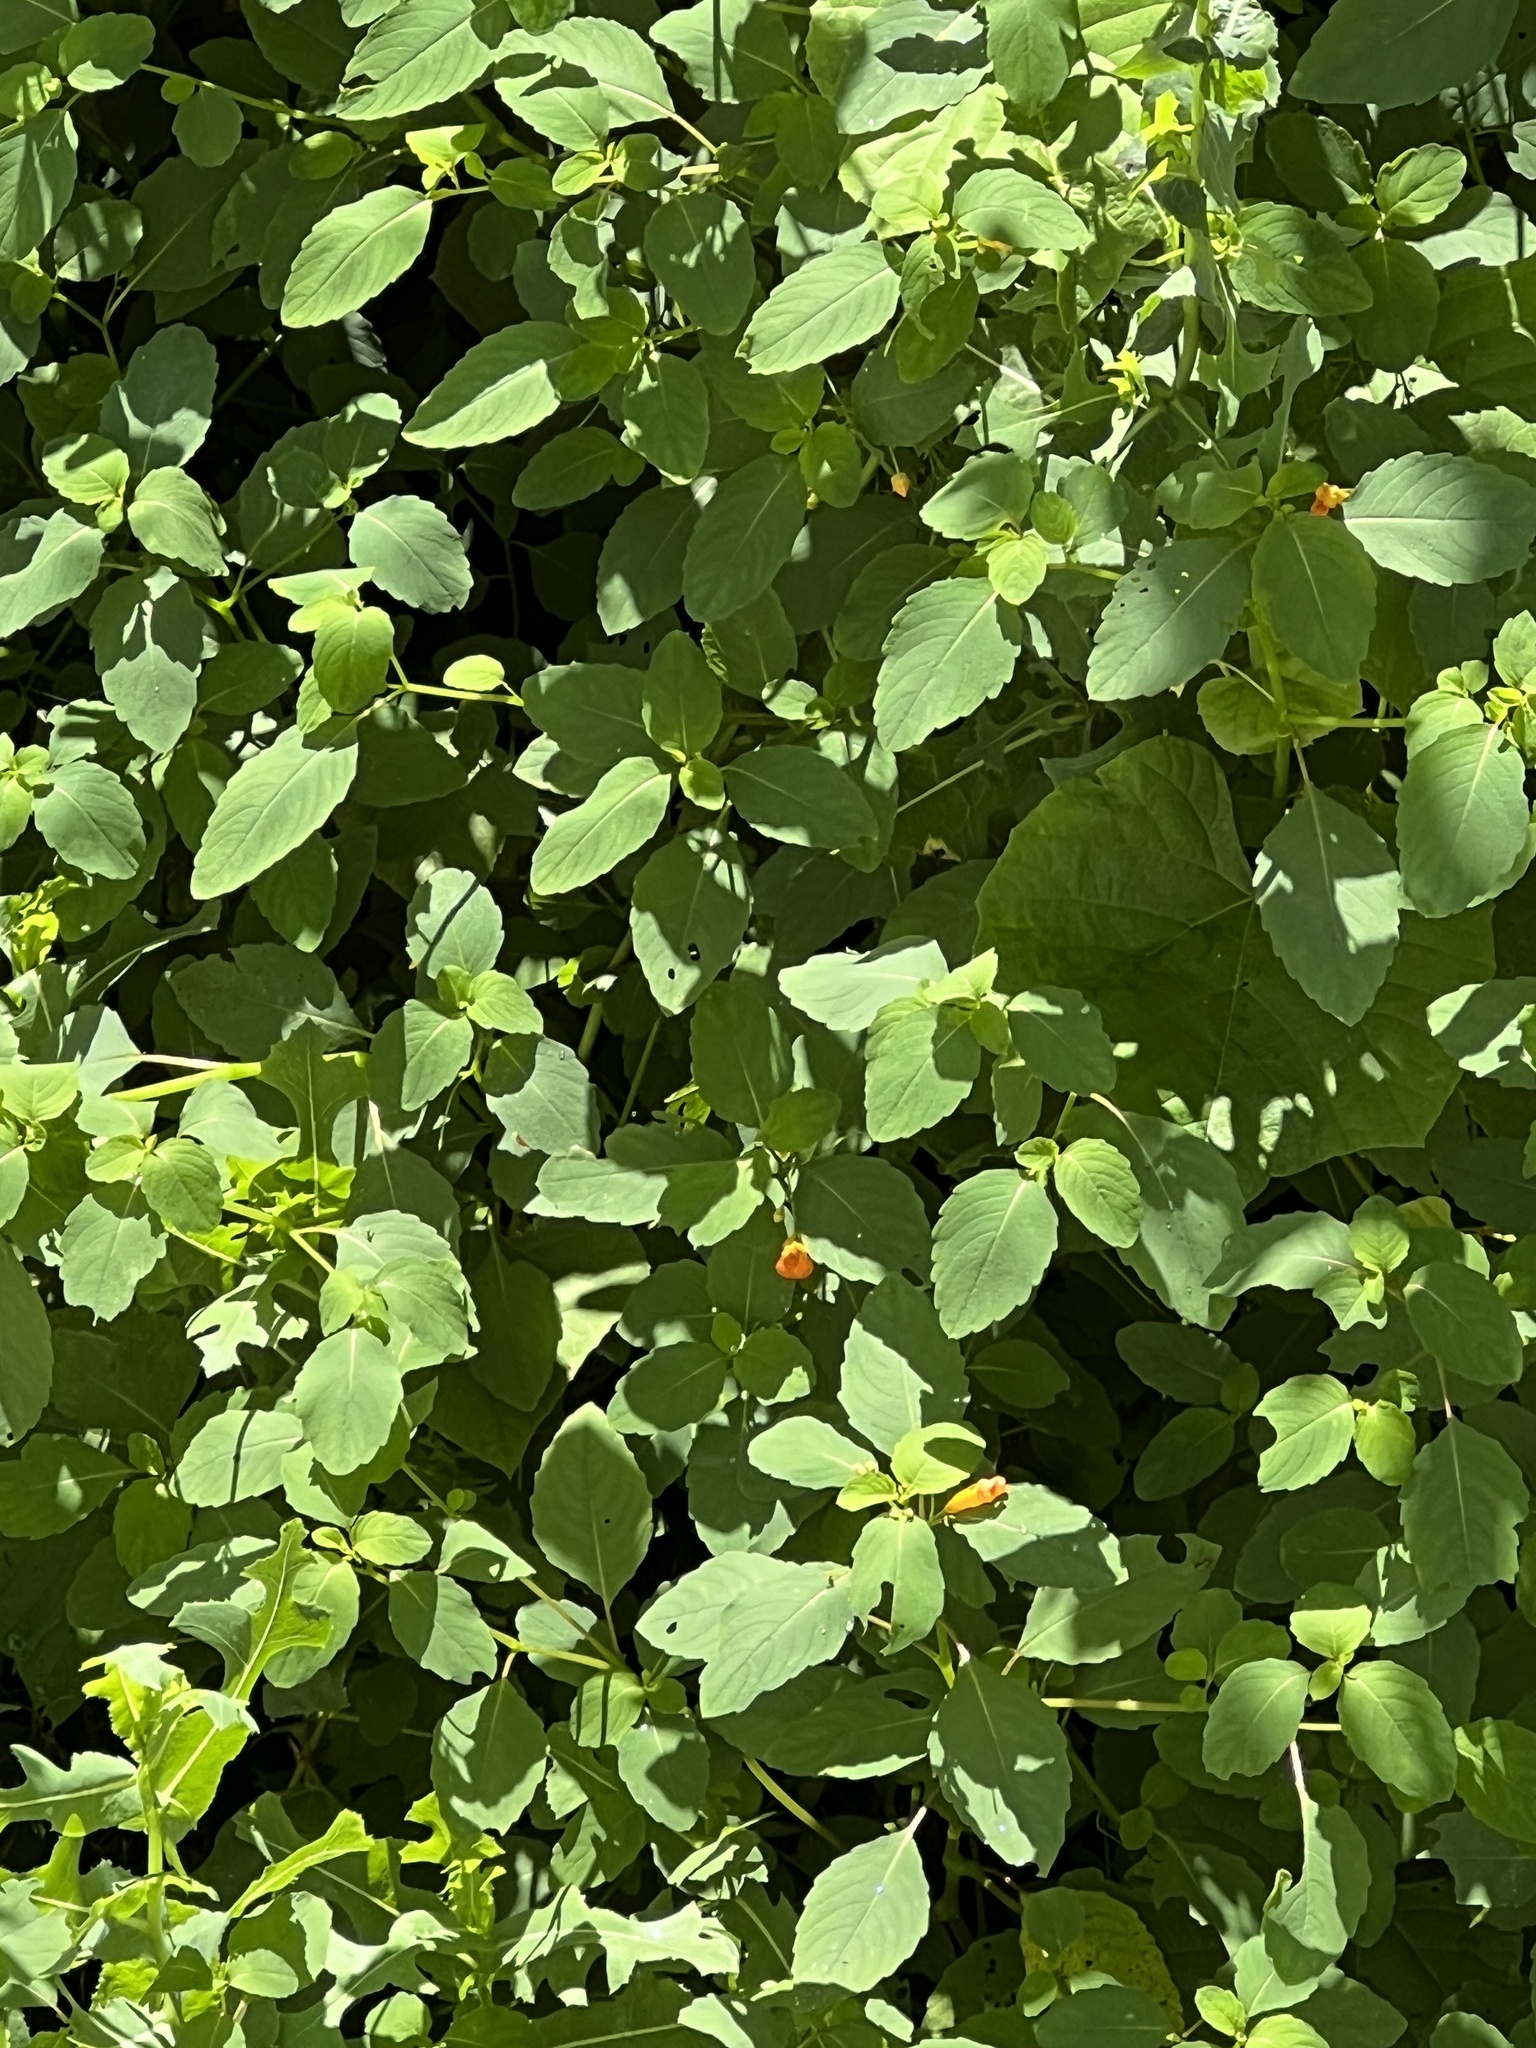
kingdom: Plantae
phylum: Tracheophyta
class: Magnoliopsida
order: Ericales
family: Balsaminaceae
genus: Impatiens
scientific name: Impatiens capensis
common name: Orange balsam
